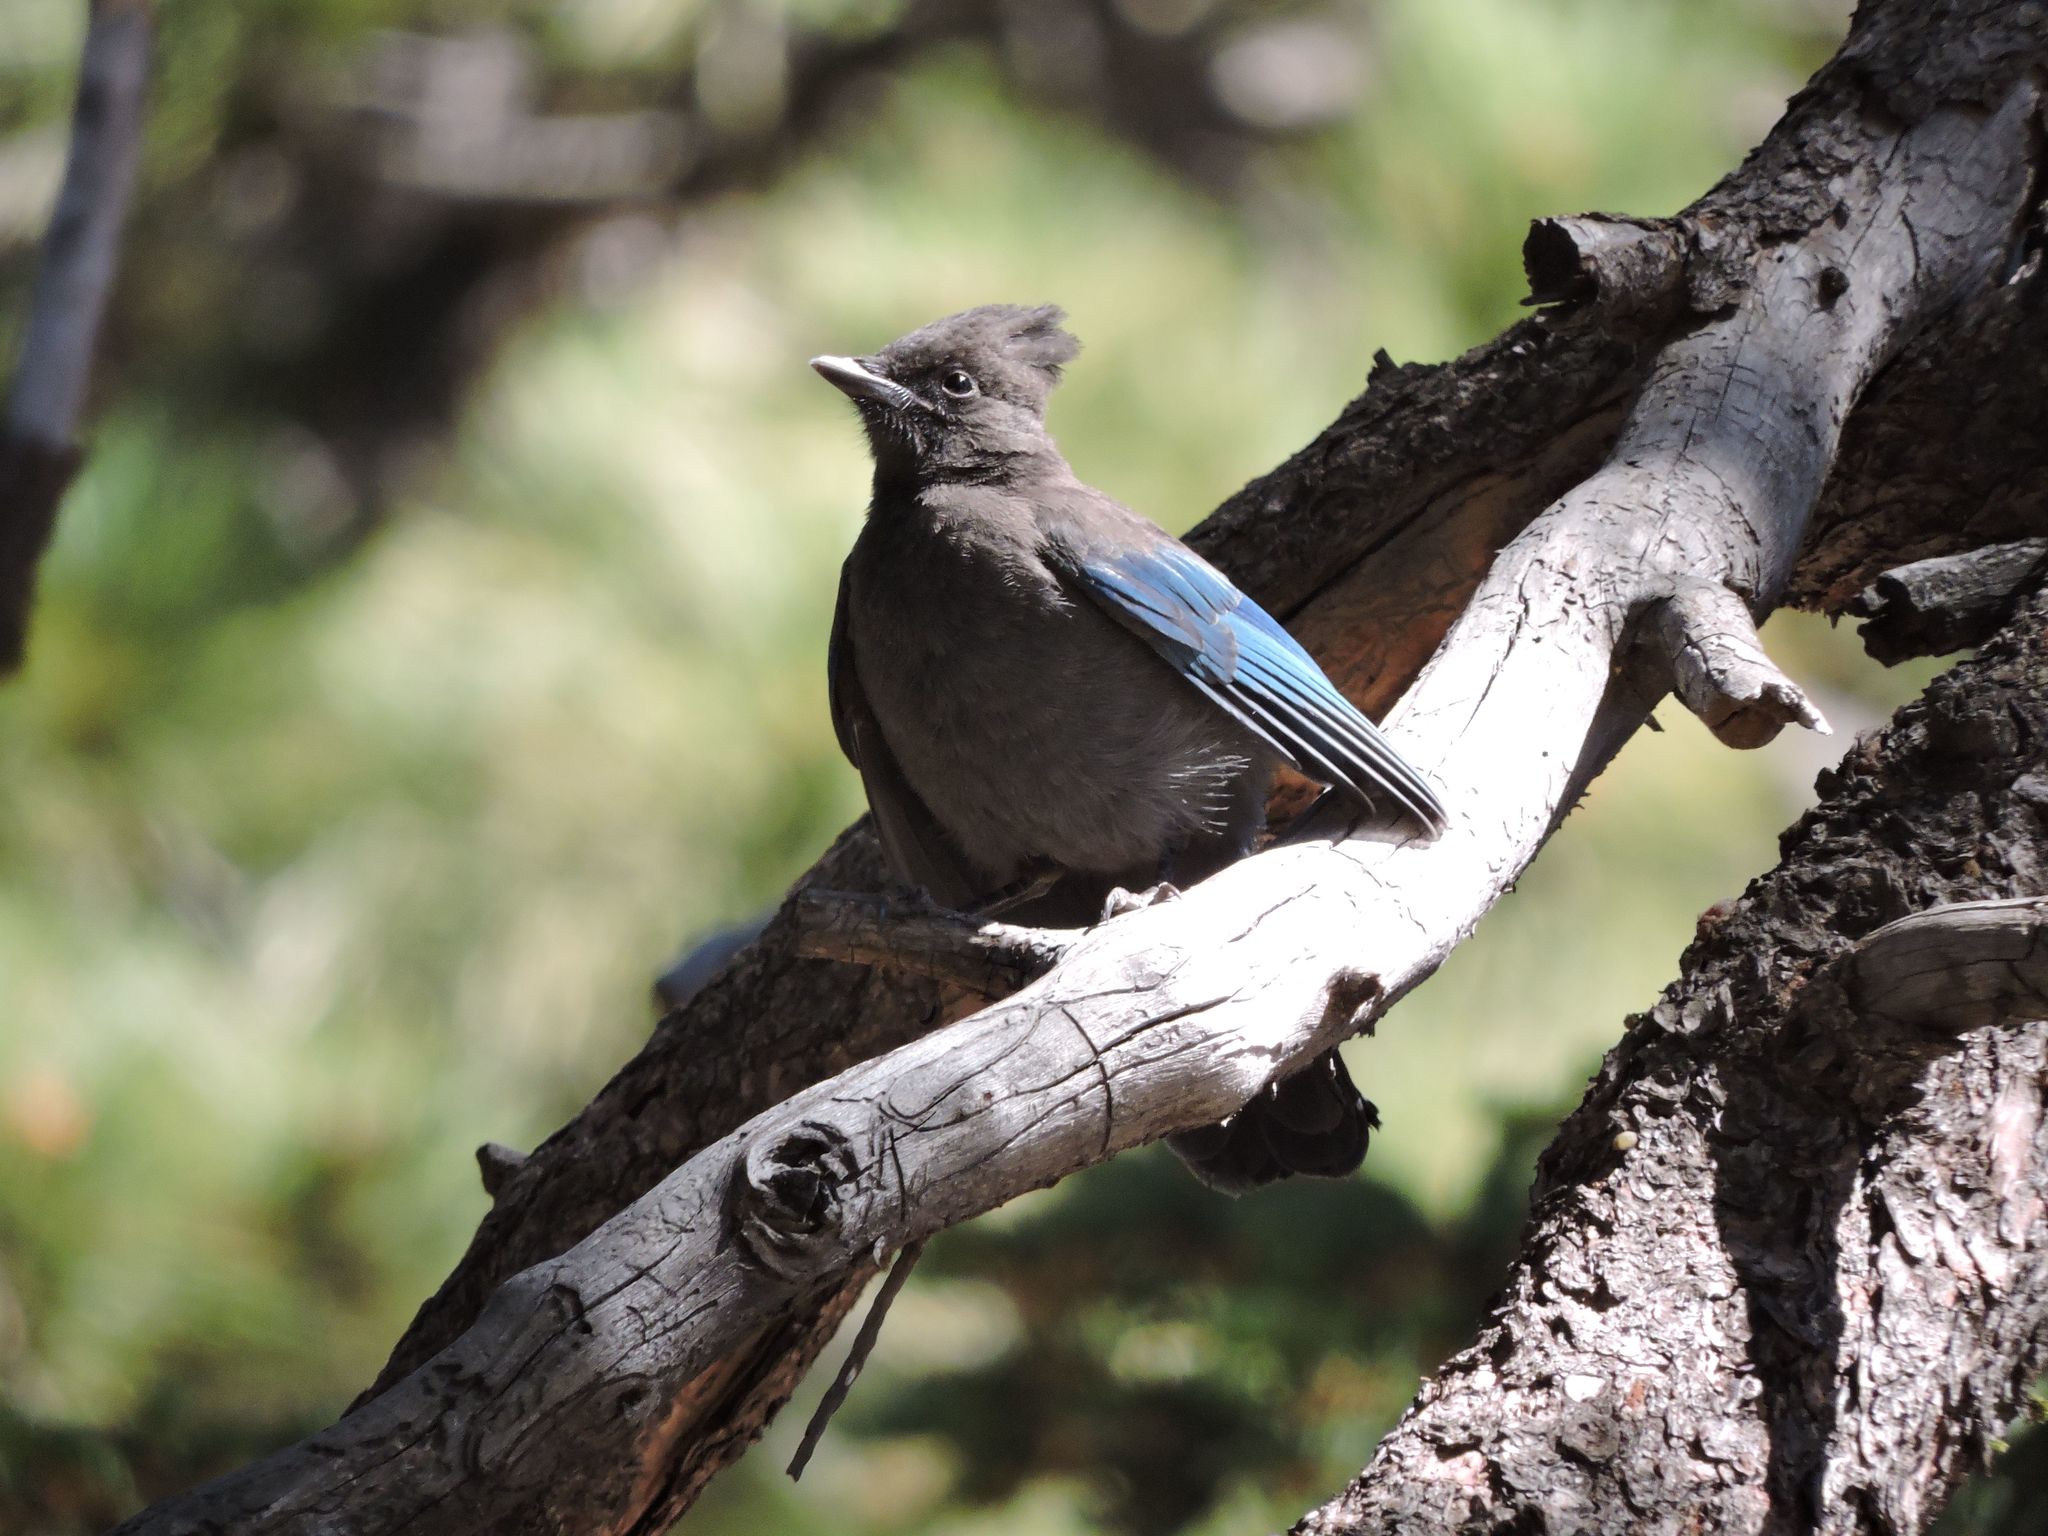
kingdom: Animalia
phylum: Chordata
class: Aves
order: Passeriformes
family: Corvidae
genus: Cyanocitta
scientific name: Cyanocitta stelleri
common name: Steller's jay
